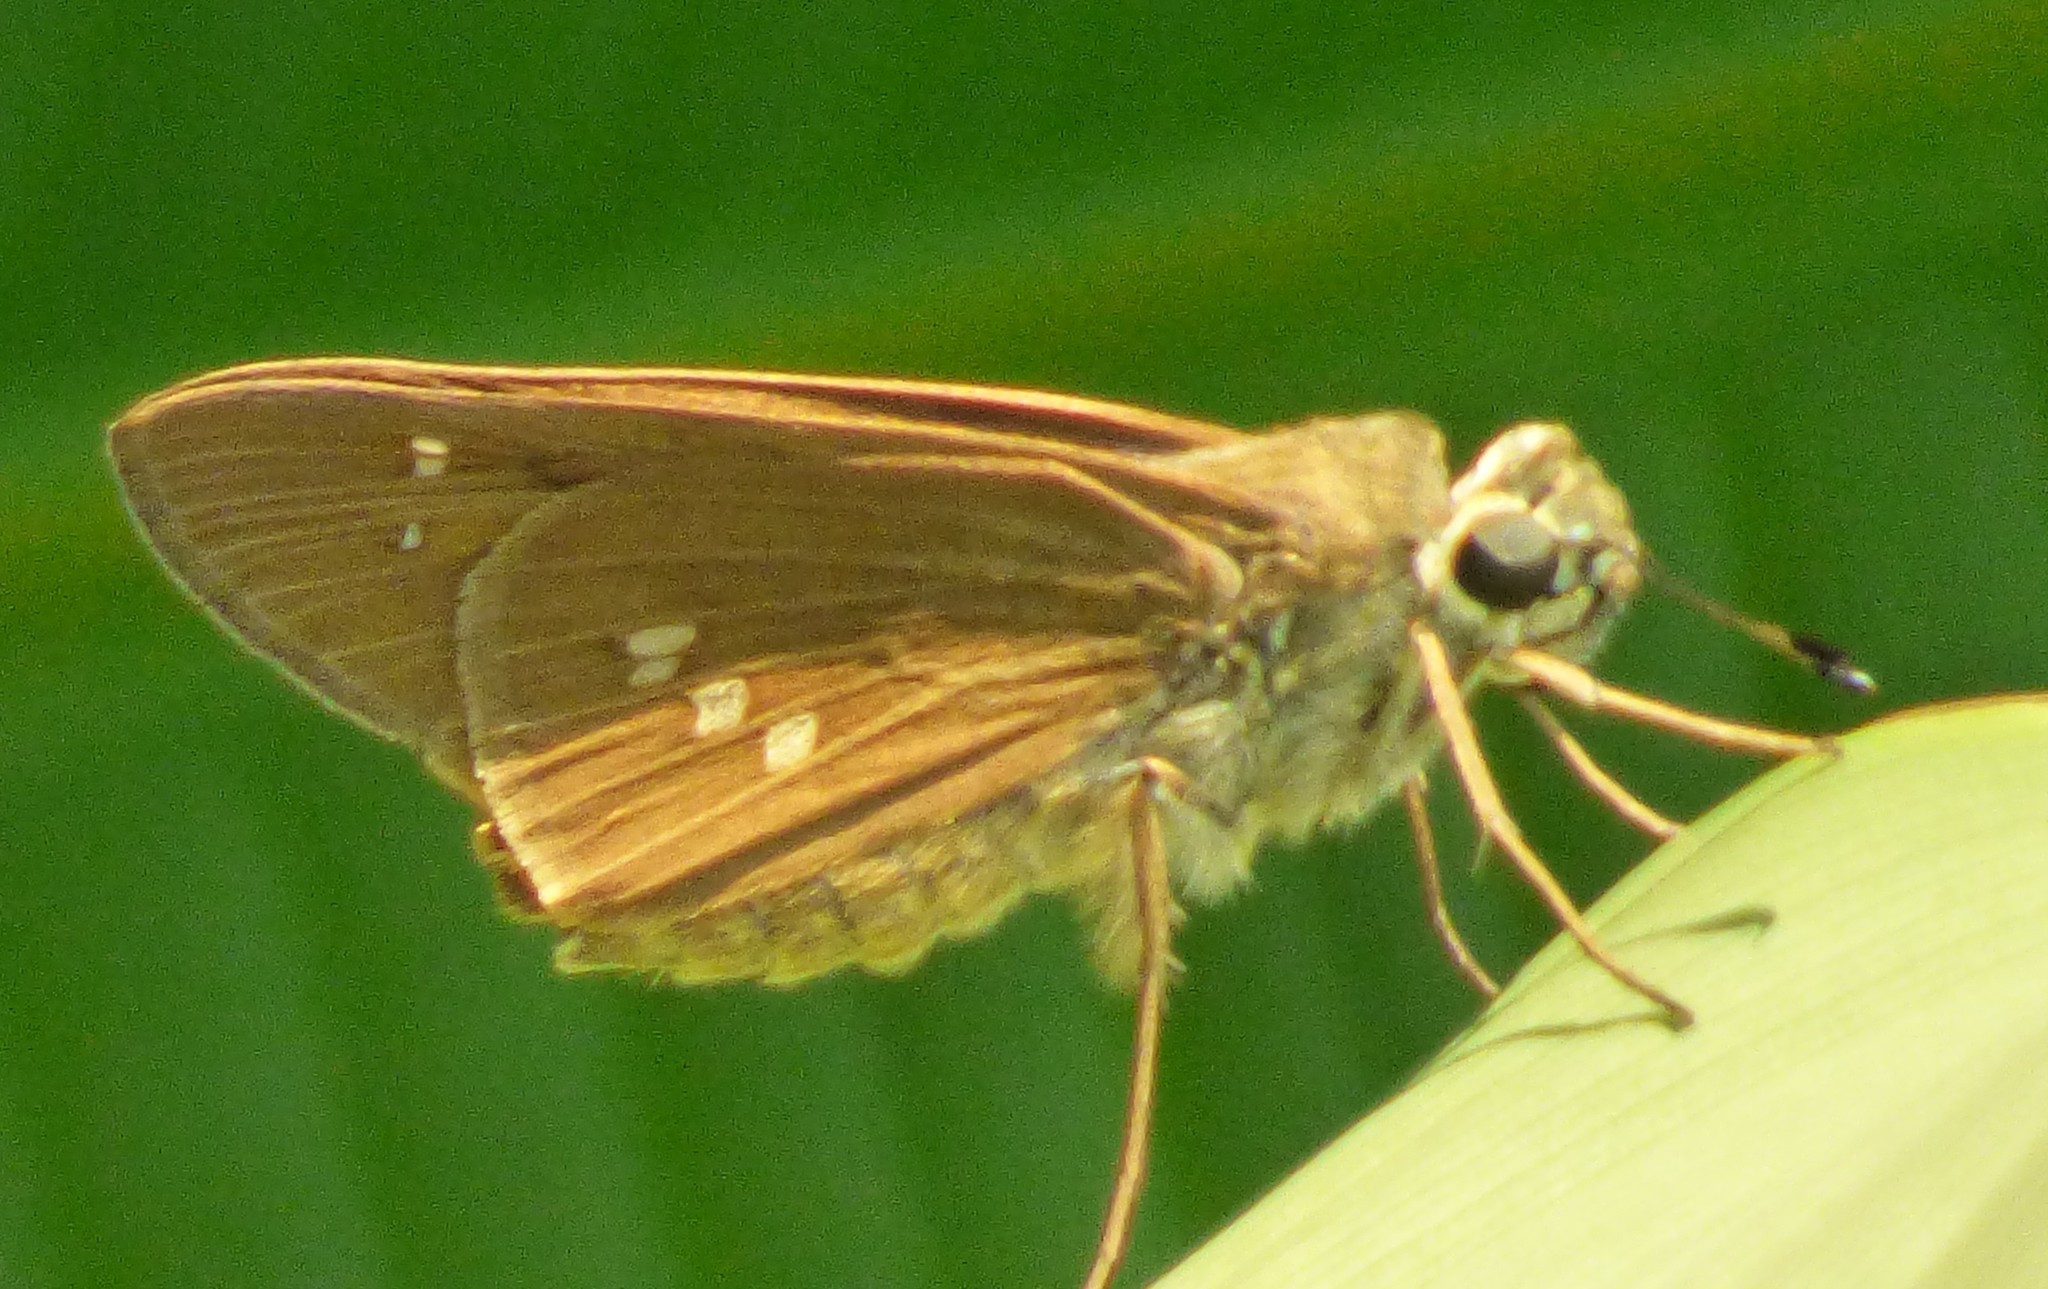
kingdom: Animalia
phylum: Arthropoda
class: Insecta
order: Lepidoptera
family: Hesperiidae
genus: Calpodes
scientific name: Calpodes ethlius
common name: Brazilian skipper
